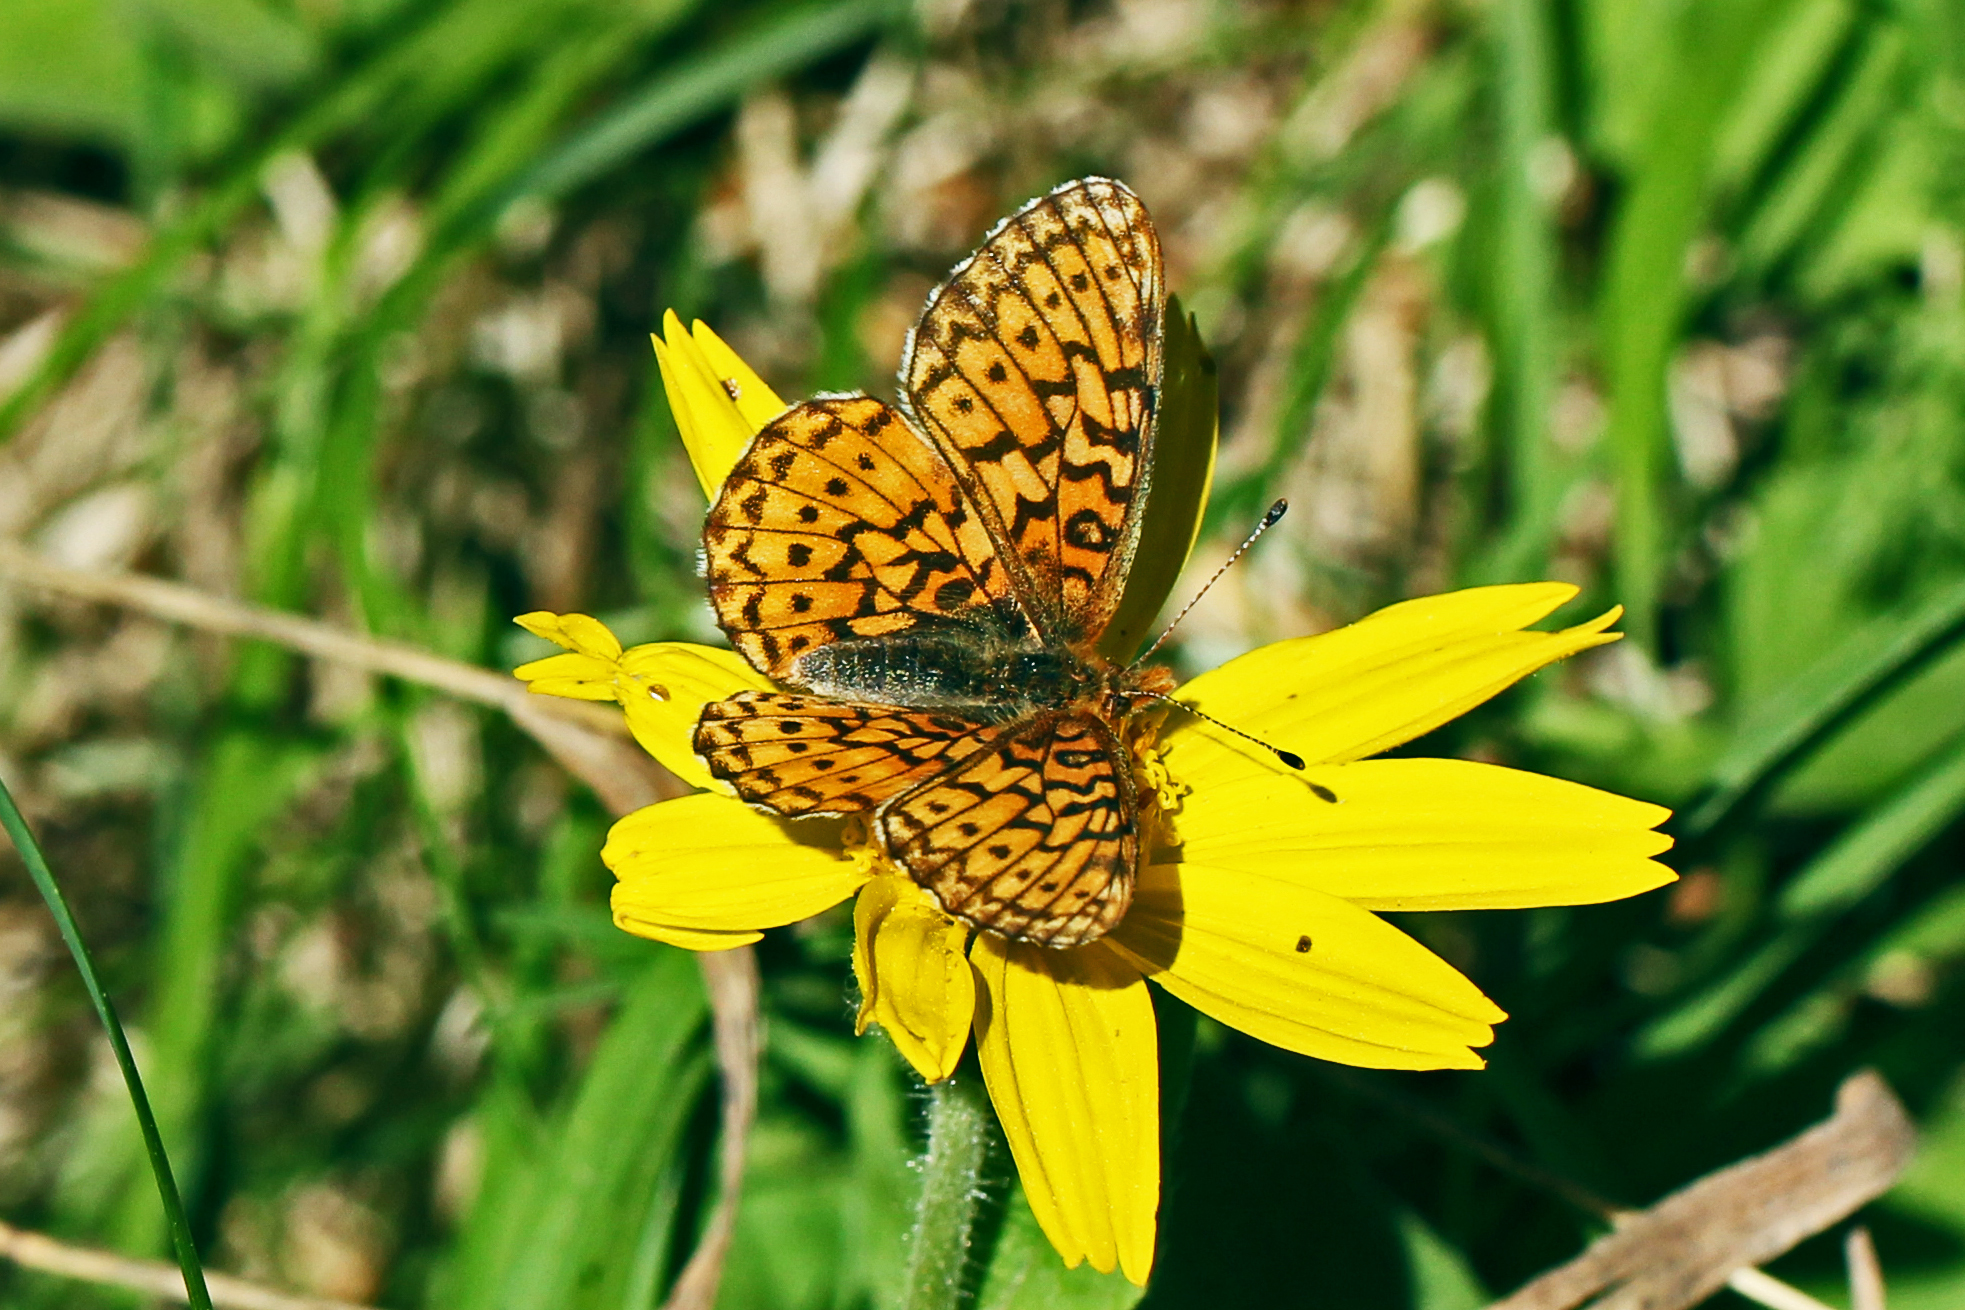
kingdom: Animalia
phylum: Arthropoda
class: Insecta
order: Lepidoptera
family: Nymphalidae
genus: Boloria
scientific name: Boloria kriemhild
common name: Relict fritillary
